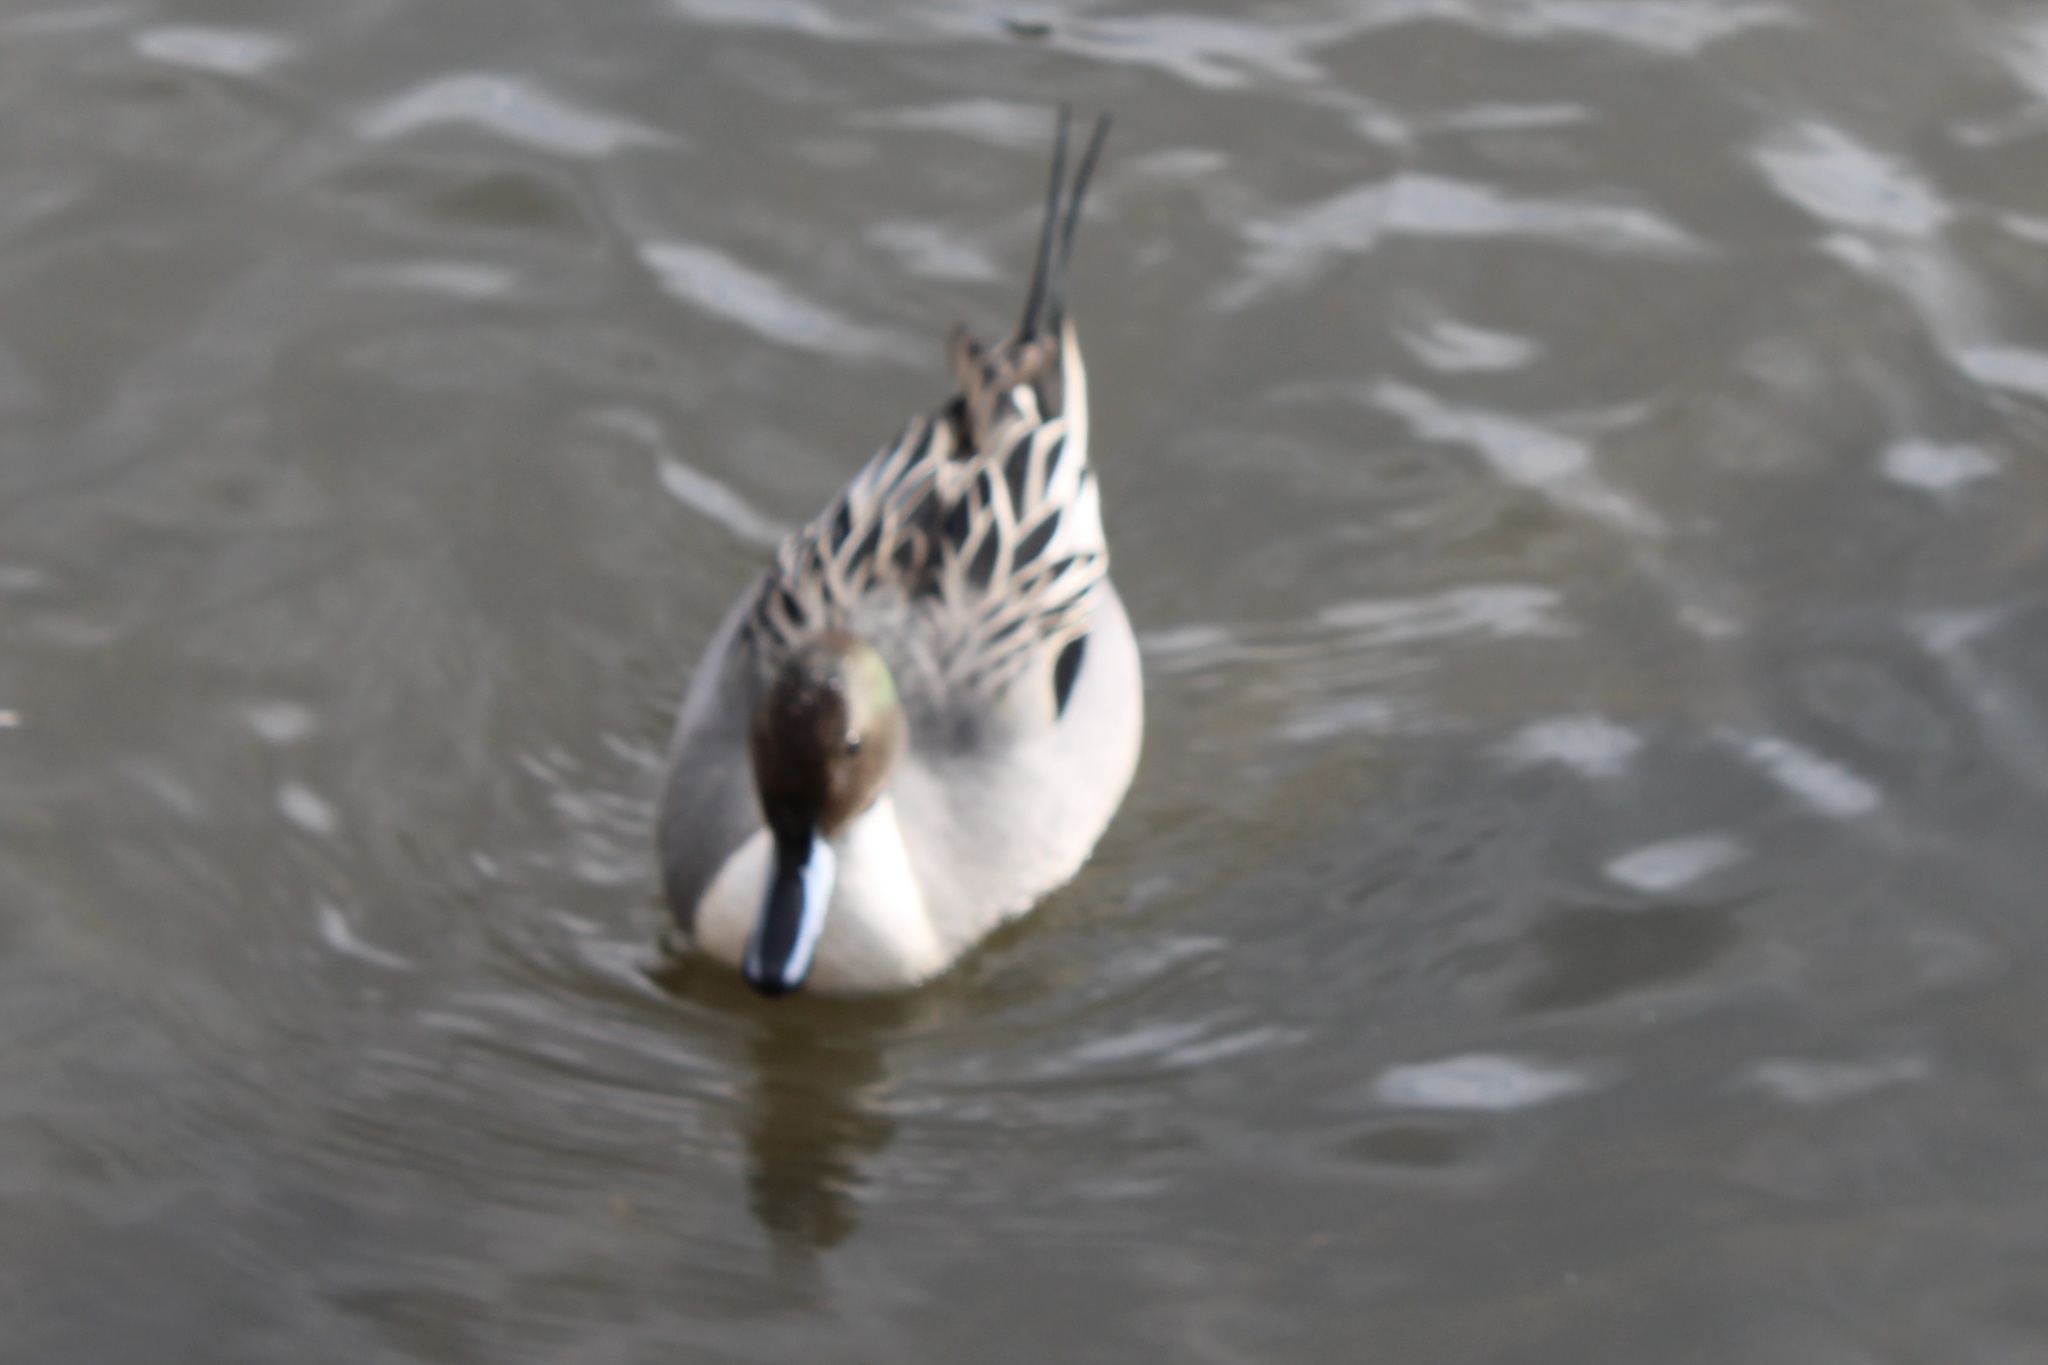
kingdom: Animalia
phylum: Chordata
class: Aves
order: Anseriformes
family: Anatidae
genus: Anas
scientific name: Anas acuta
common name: Northern pintail
